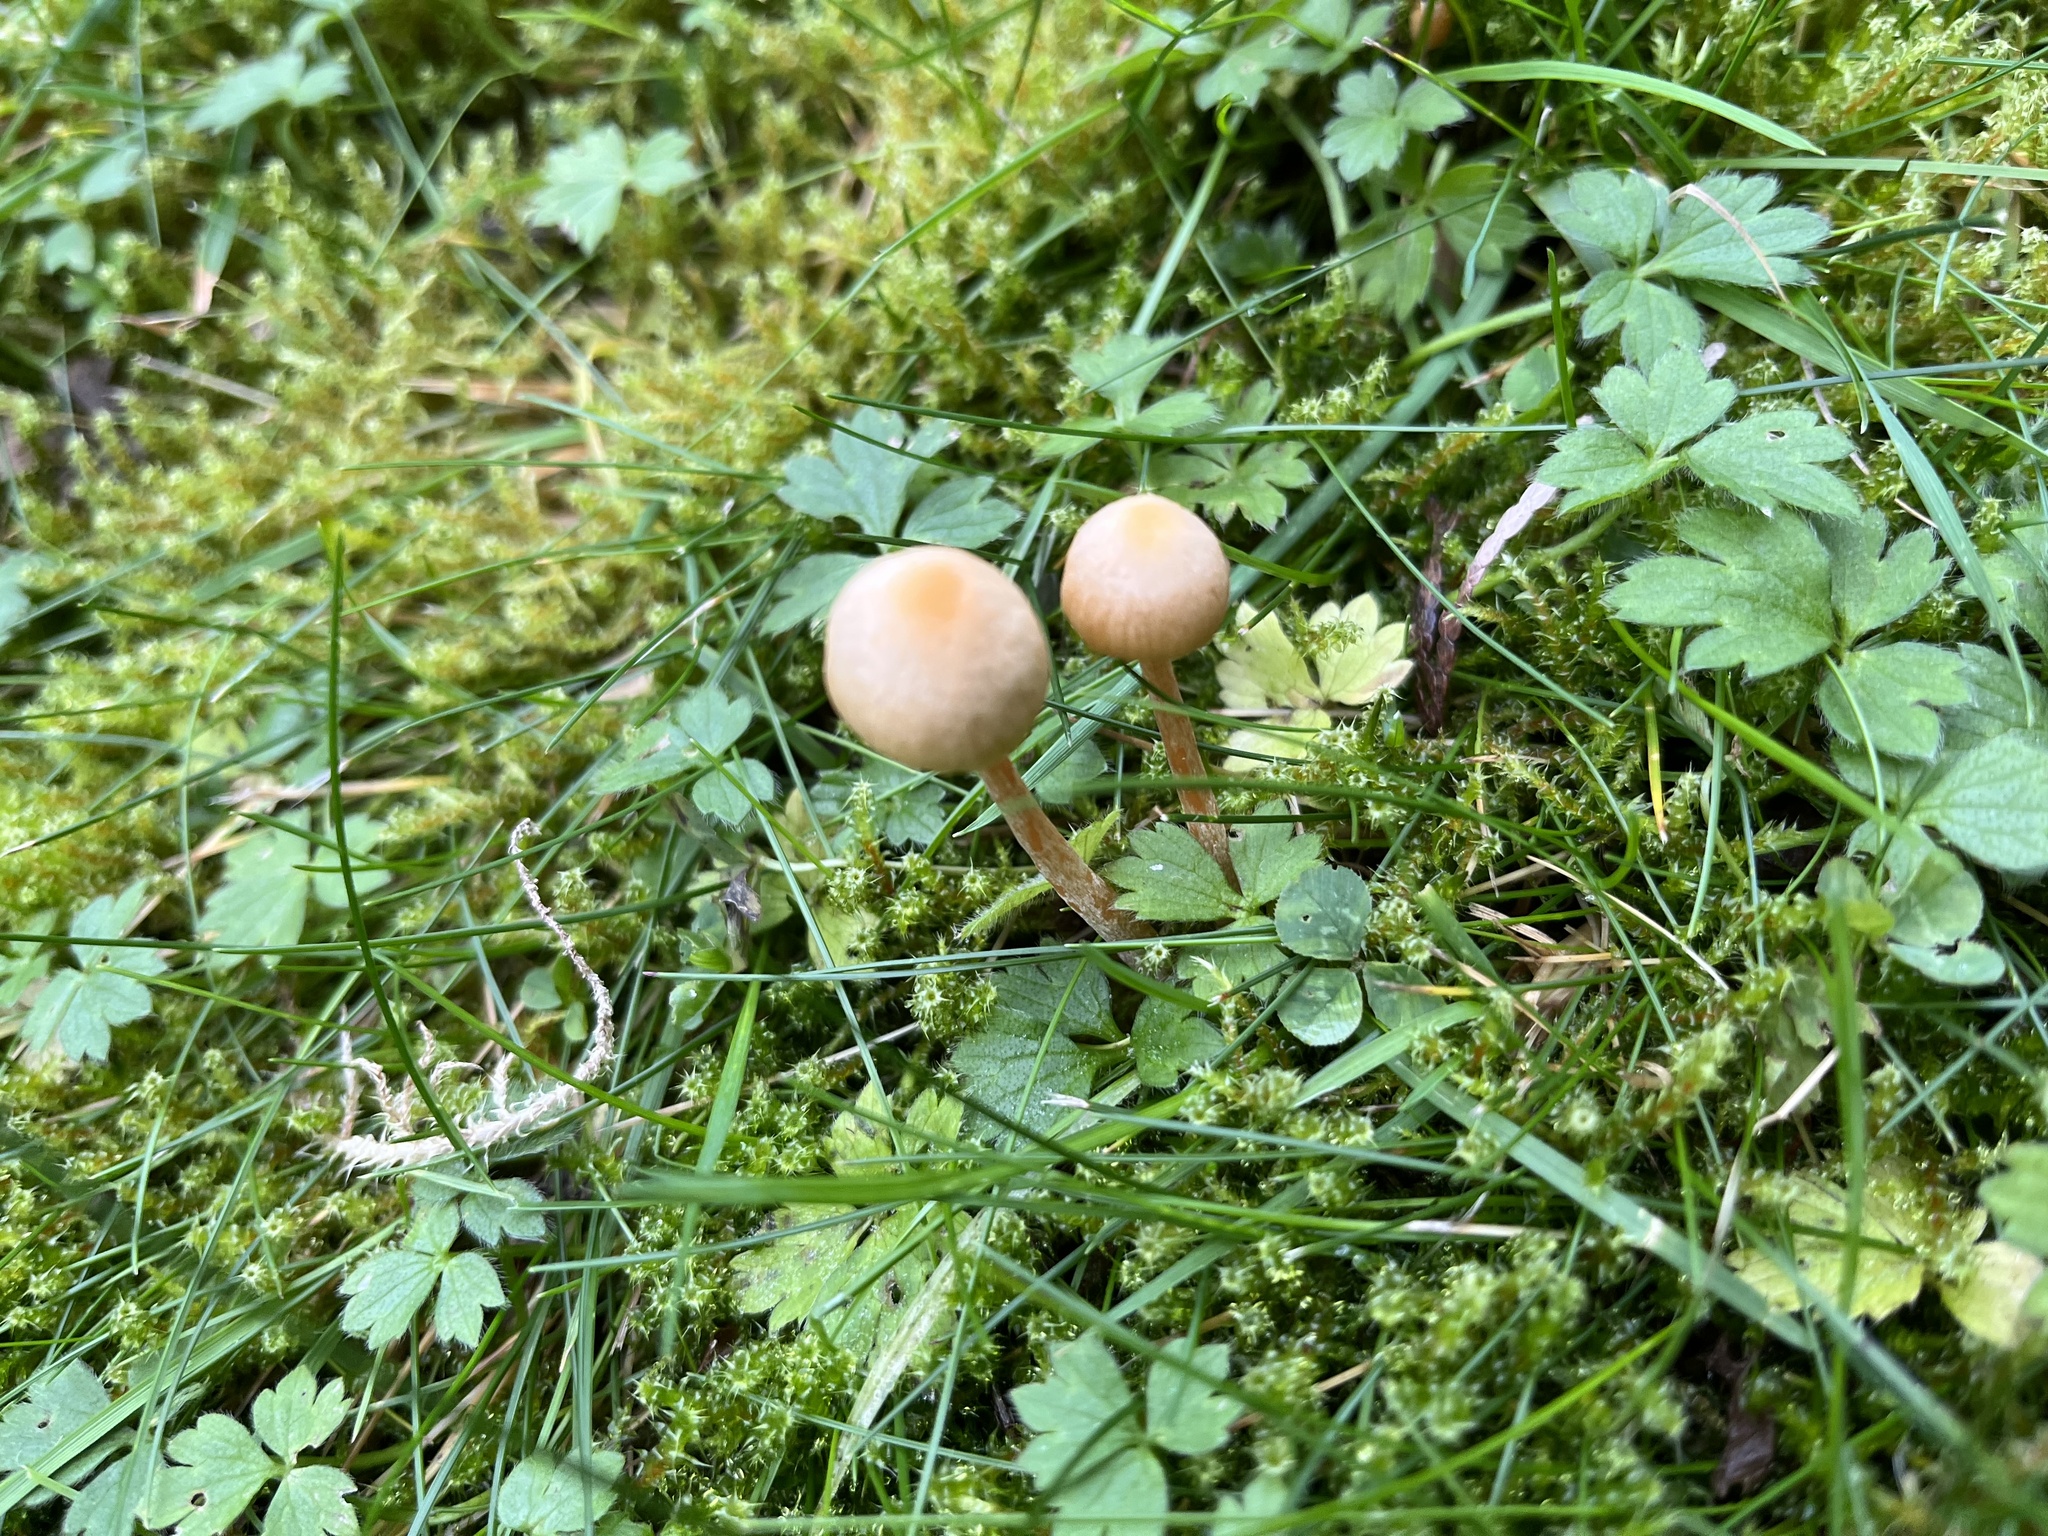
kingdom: Fungi
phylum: Basidiomycota
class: Agaricomycetes
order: Agaricales
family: Strophariaceae
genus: Agrocybe
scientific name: Agrocybe pediades
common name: Common fieldcap
